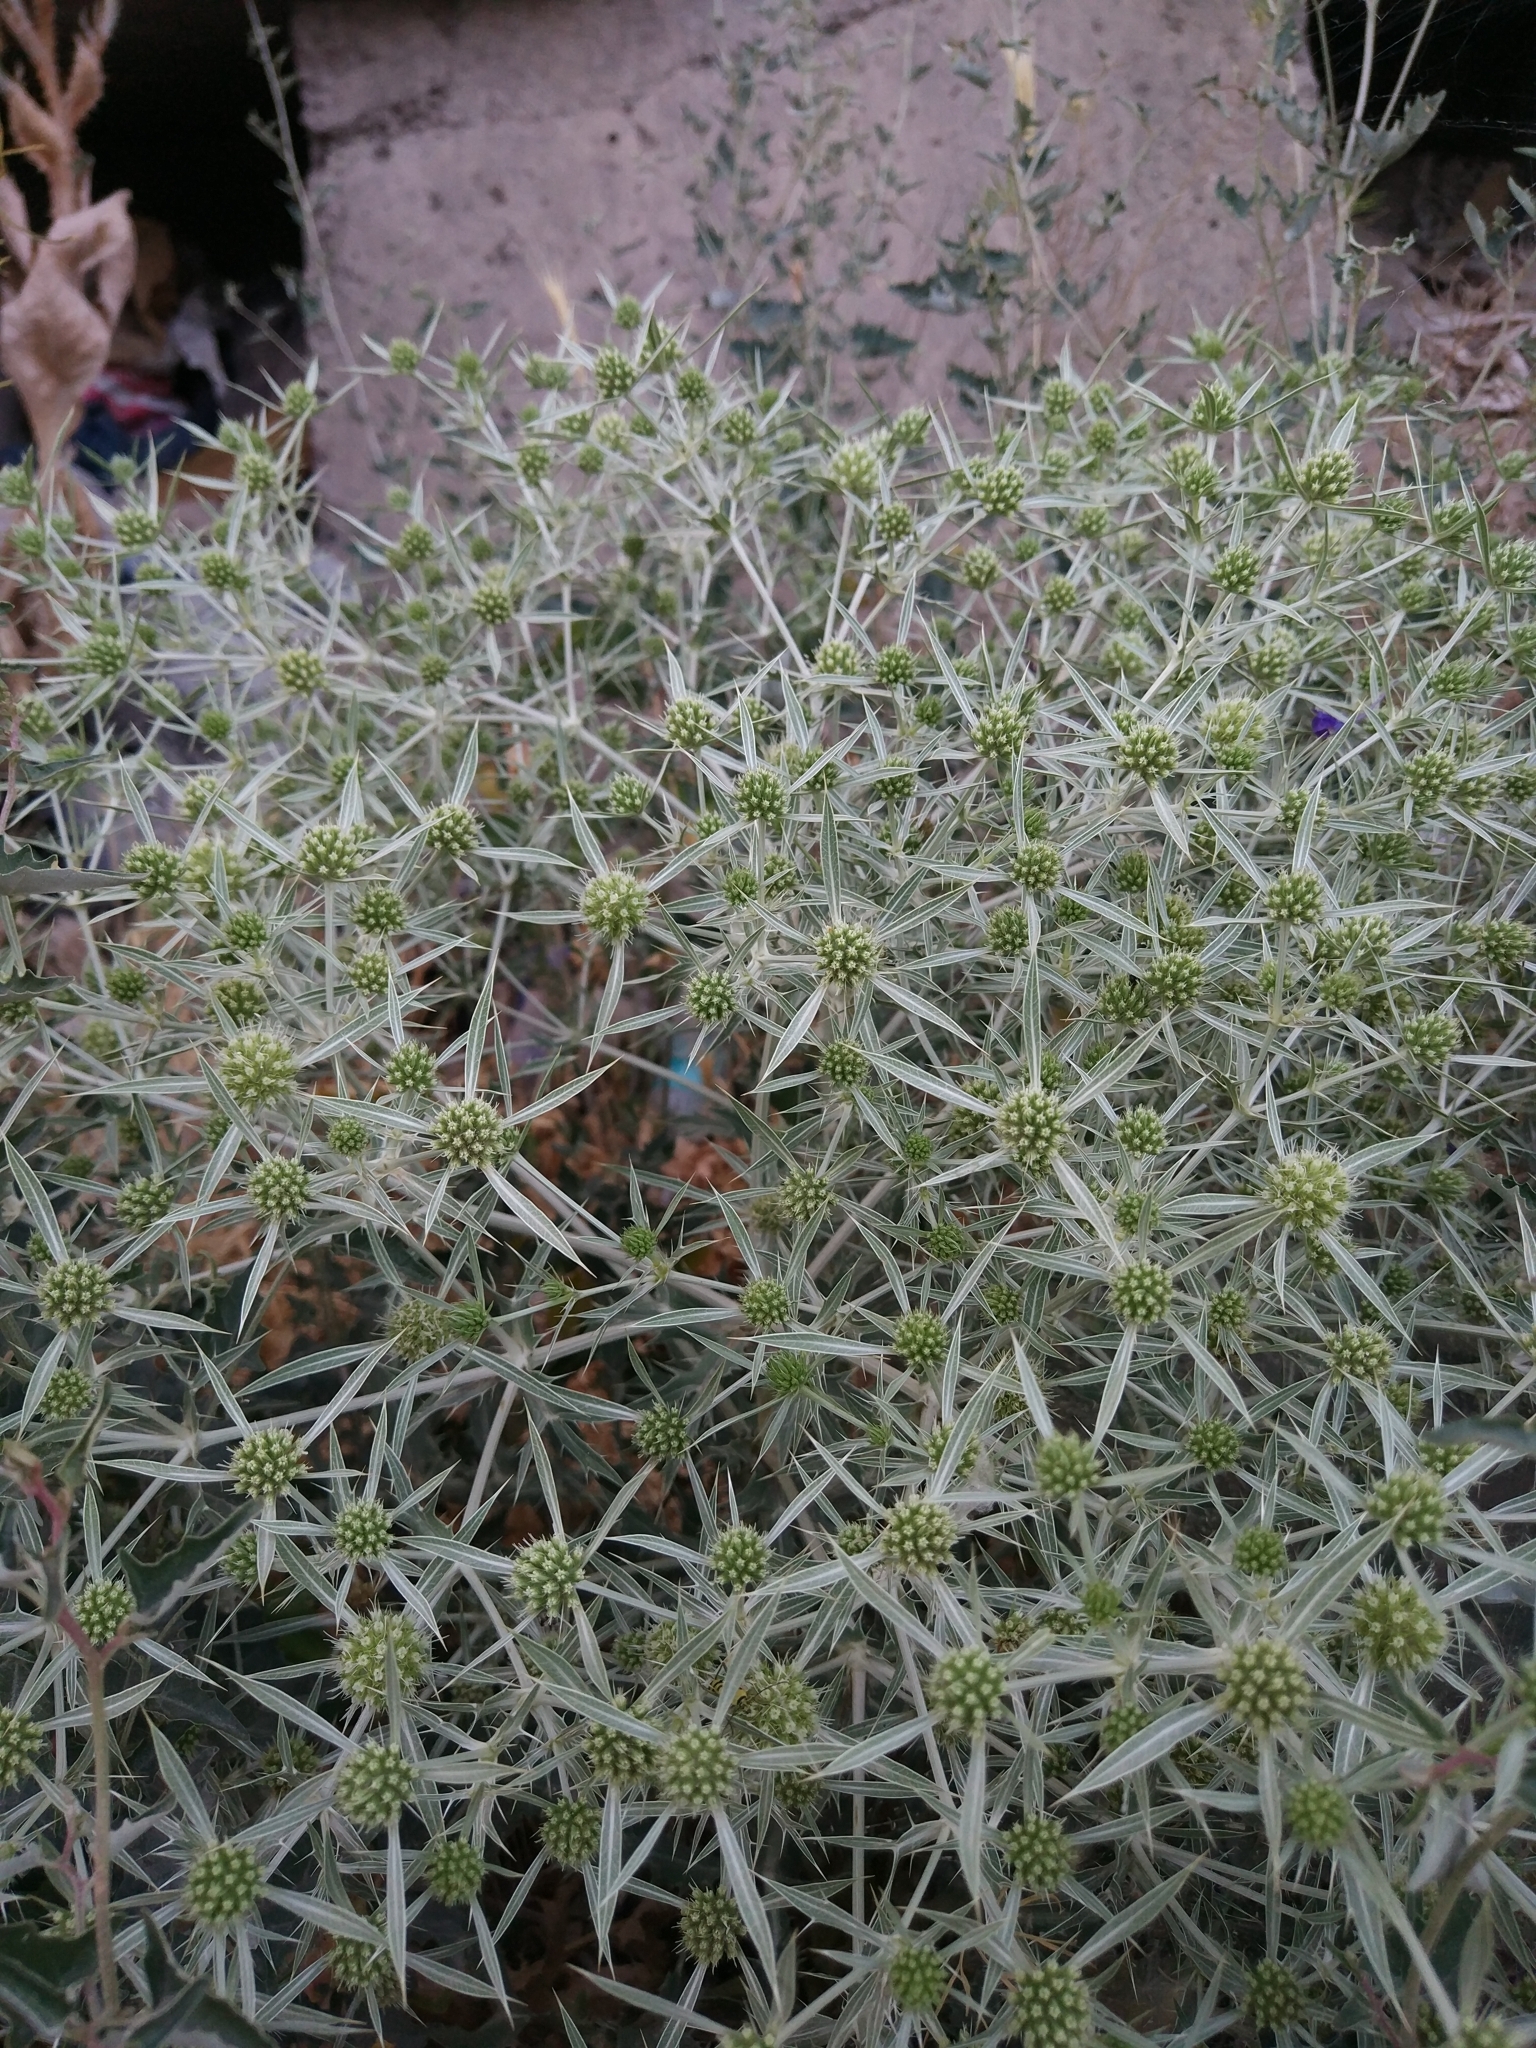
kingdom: Plantae
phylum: Tracheophyta
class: Magnoliopsida
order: Apiales
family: Apiaceae
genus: Eryngium
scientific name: Eryngium campestre
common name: Field eryngo
